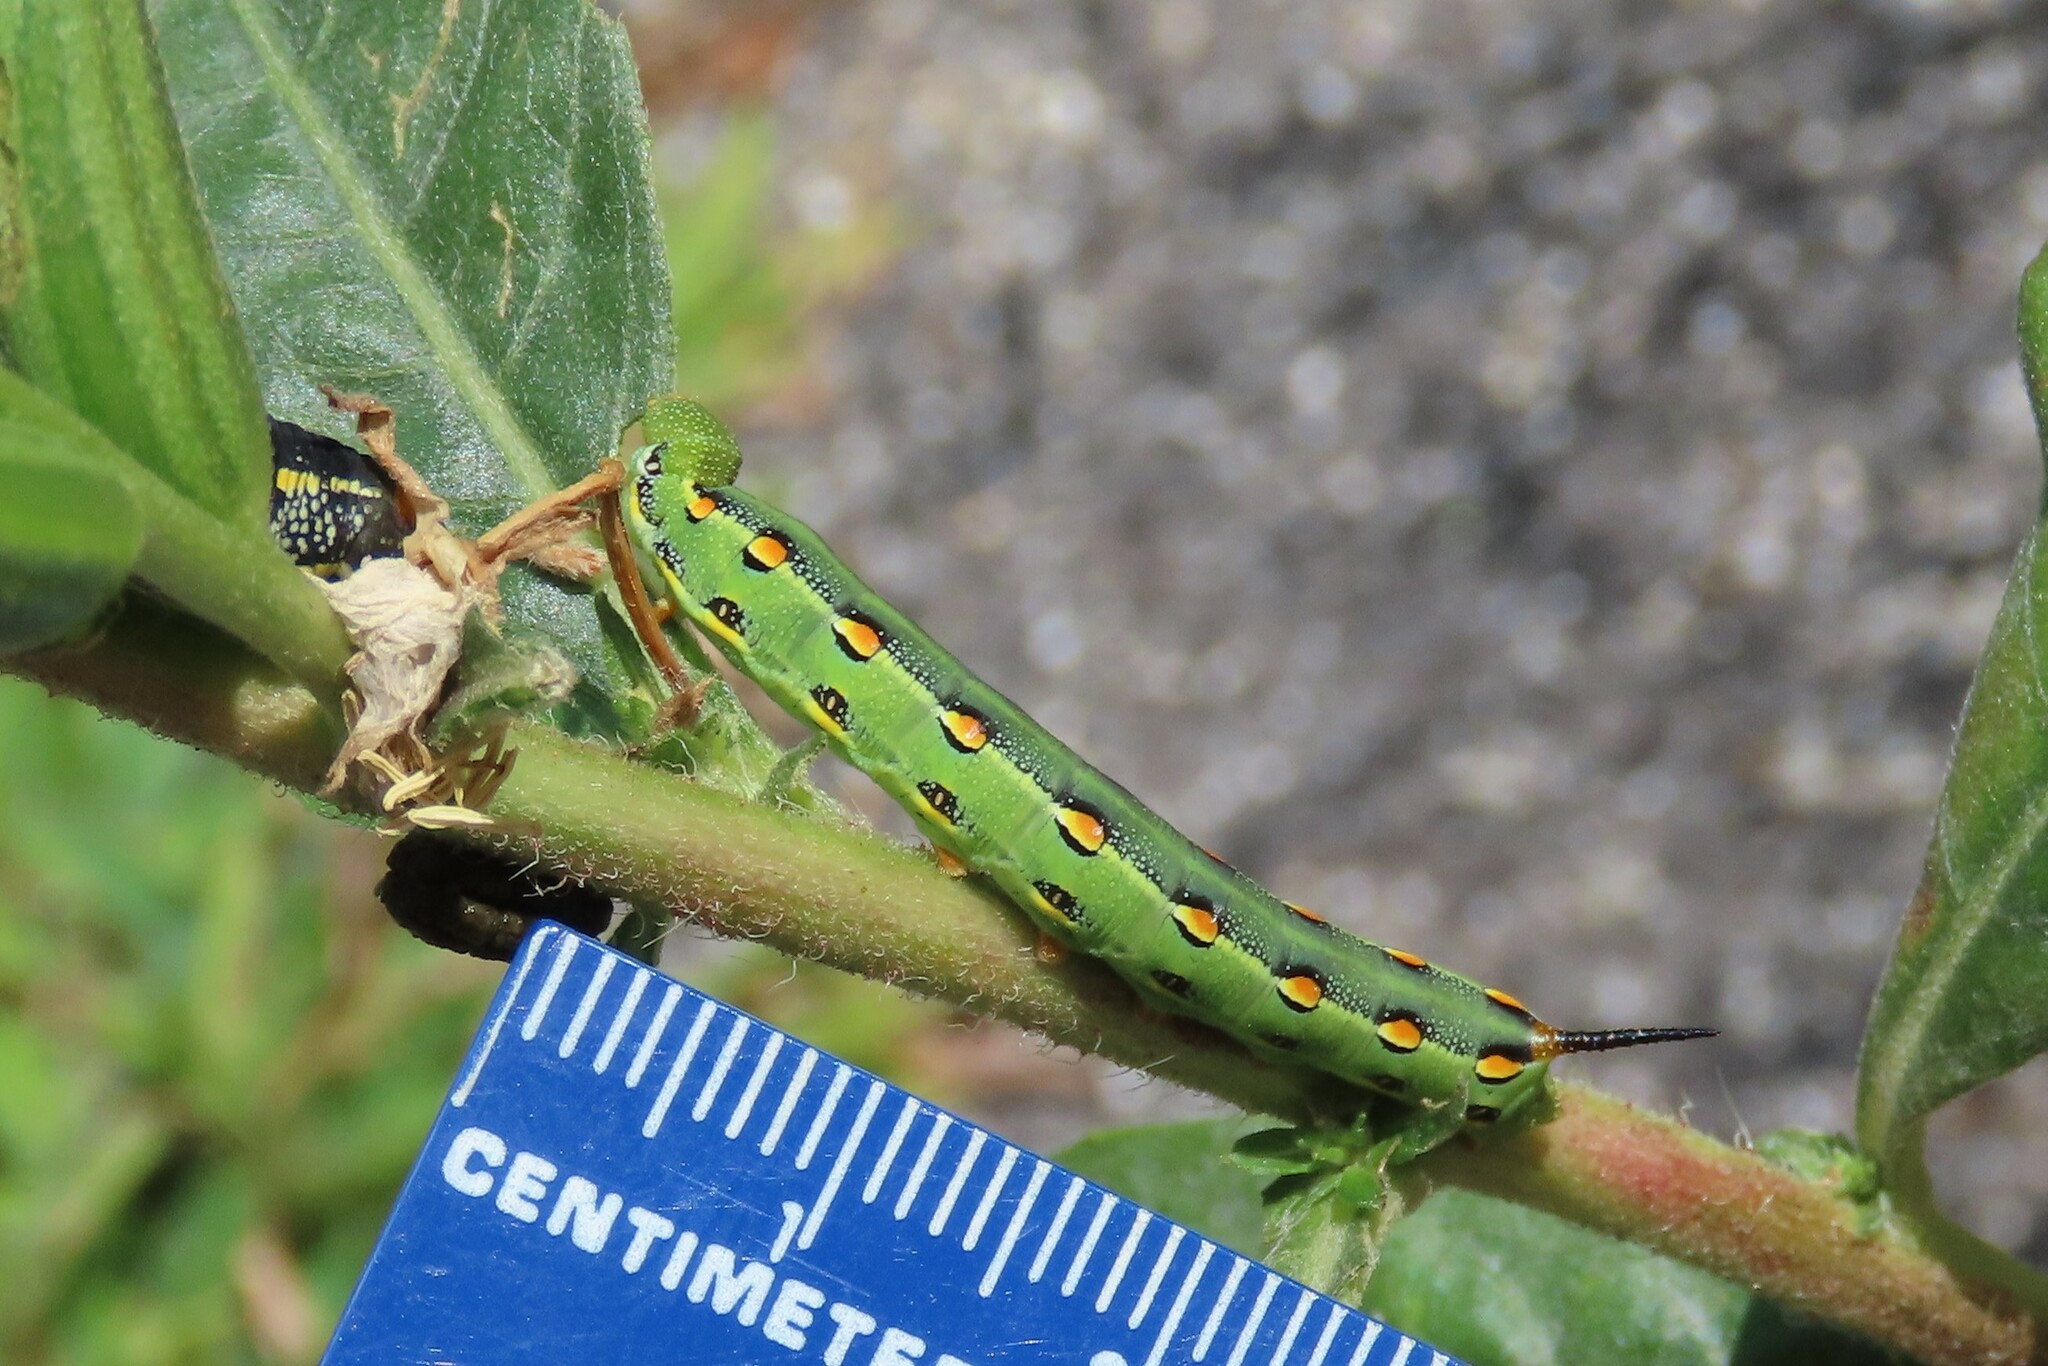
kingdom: Animalia
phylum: Arthropoda
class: Insecta
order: Lepidoptera
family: Sphingidae
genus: Hyles
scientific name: Hyles lineata
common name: White-lined sphinx
